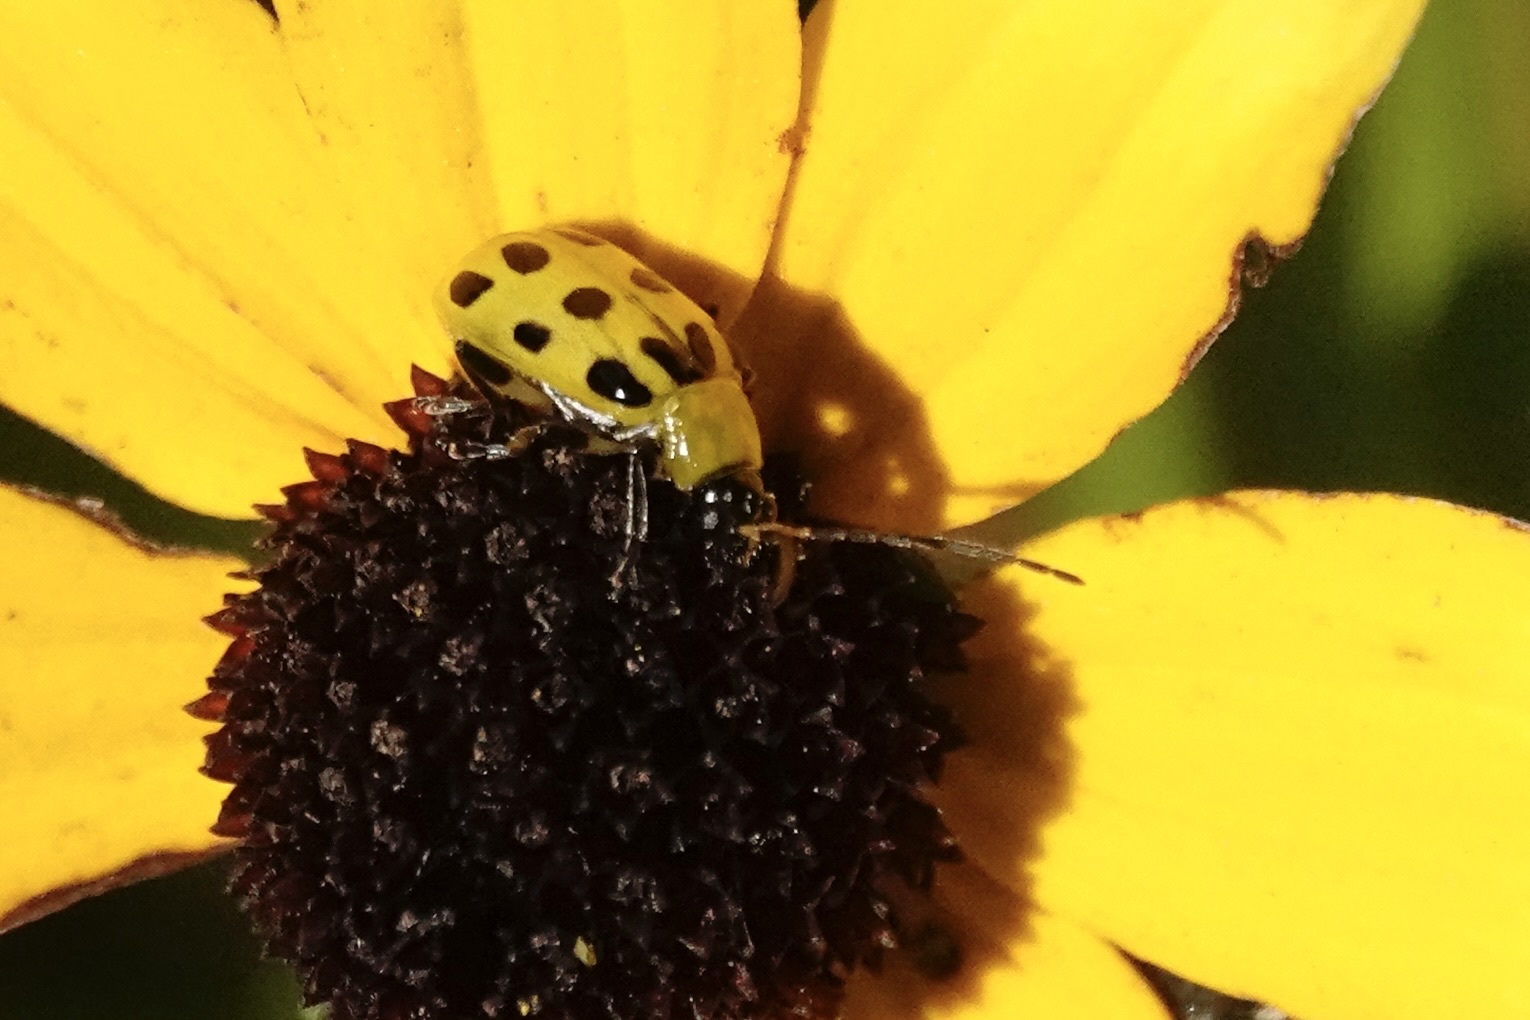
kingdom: Animalia
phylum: Arthropoda
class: Insecta
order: Coleoptera
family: Chrysomelidae
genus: Diabrotica
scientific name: Diabrotica undecimpunctata
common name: Spotted cucumber beetle
